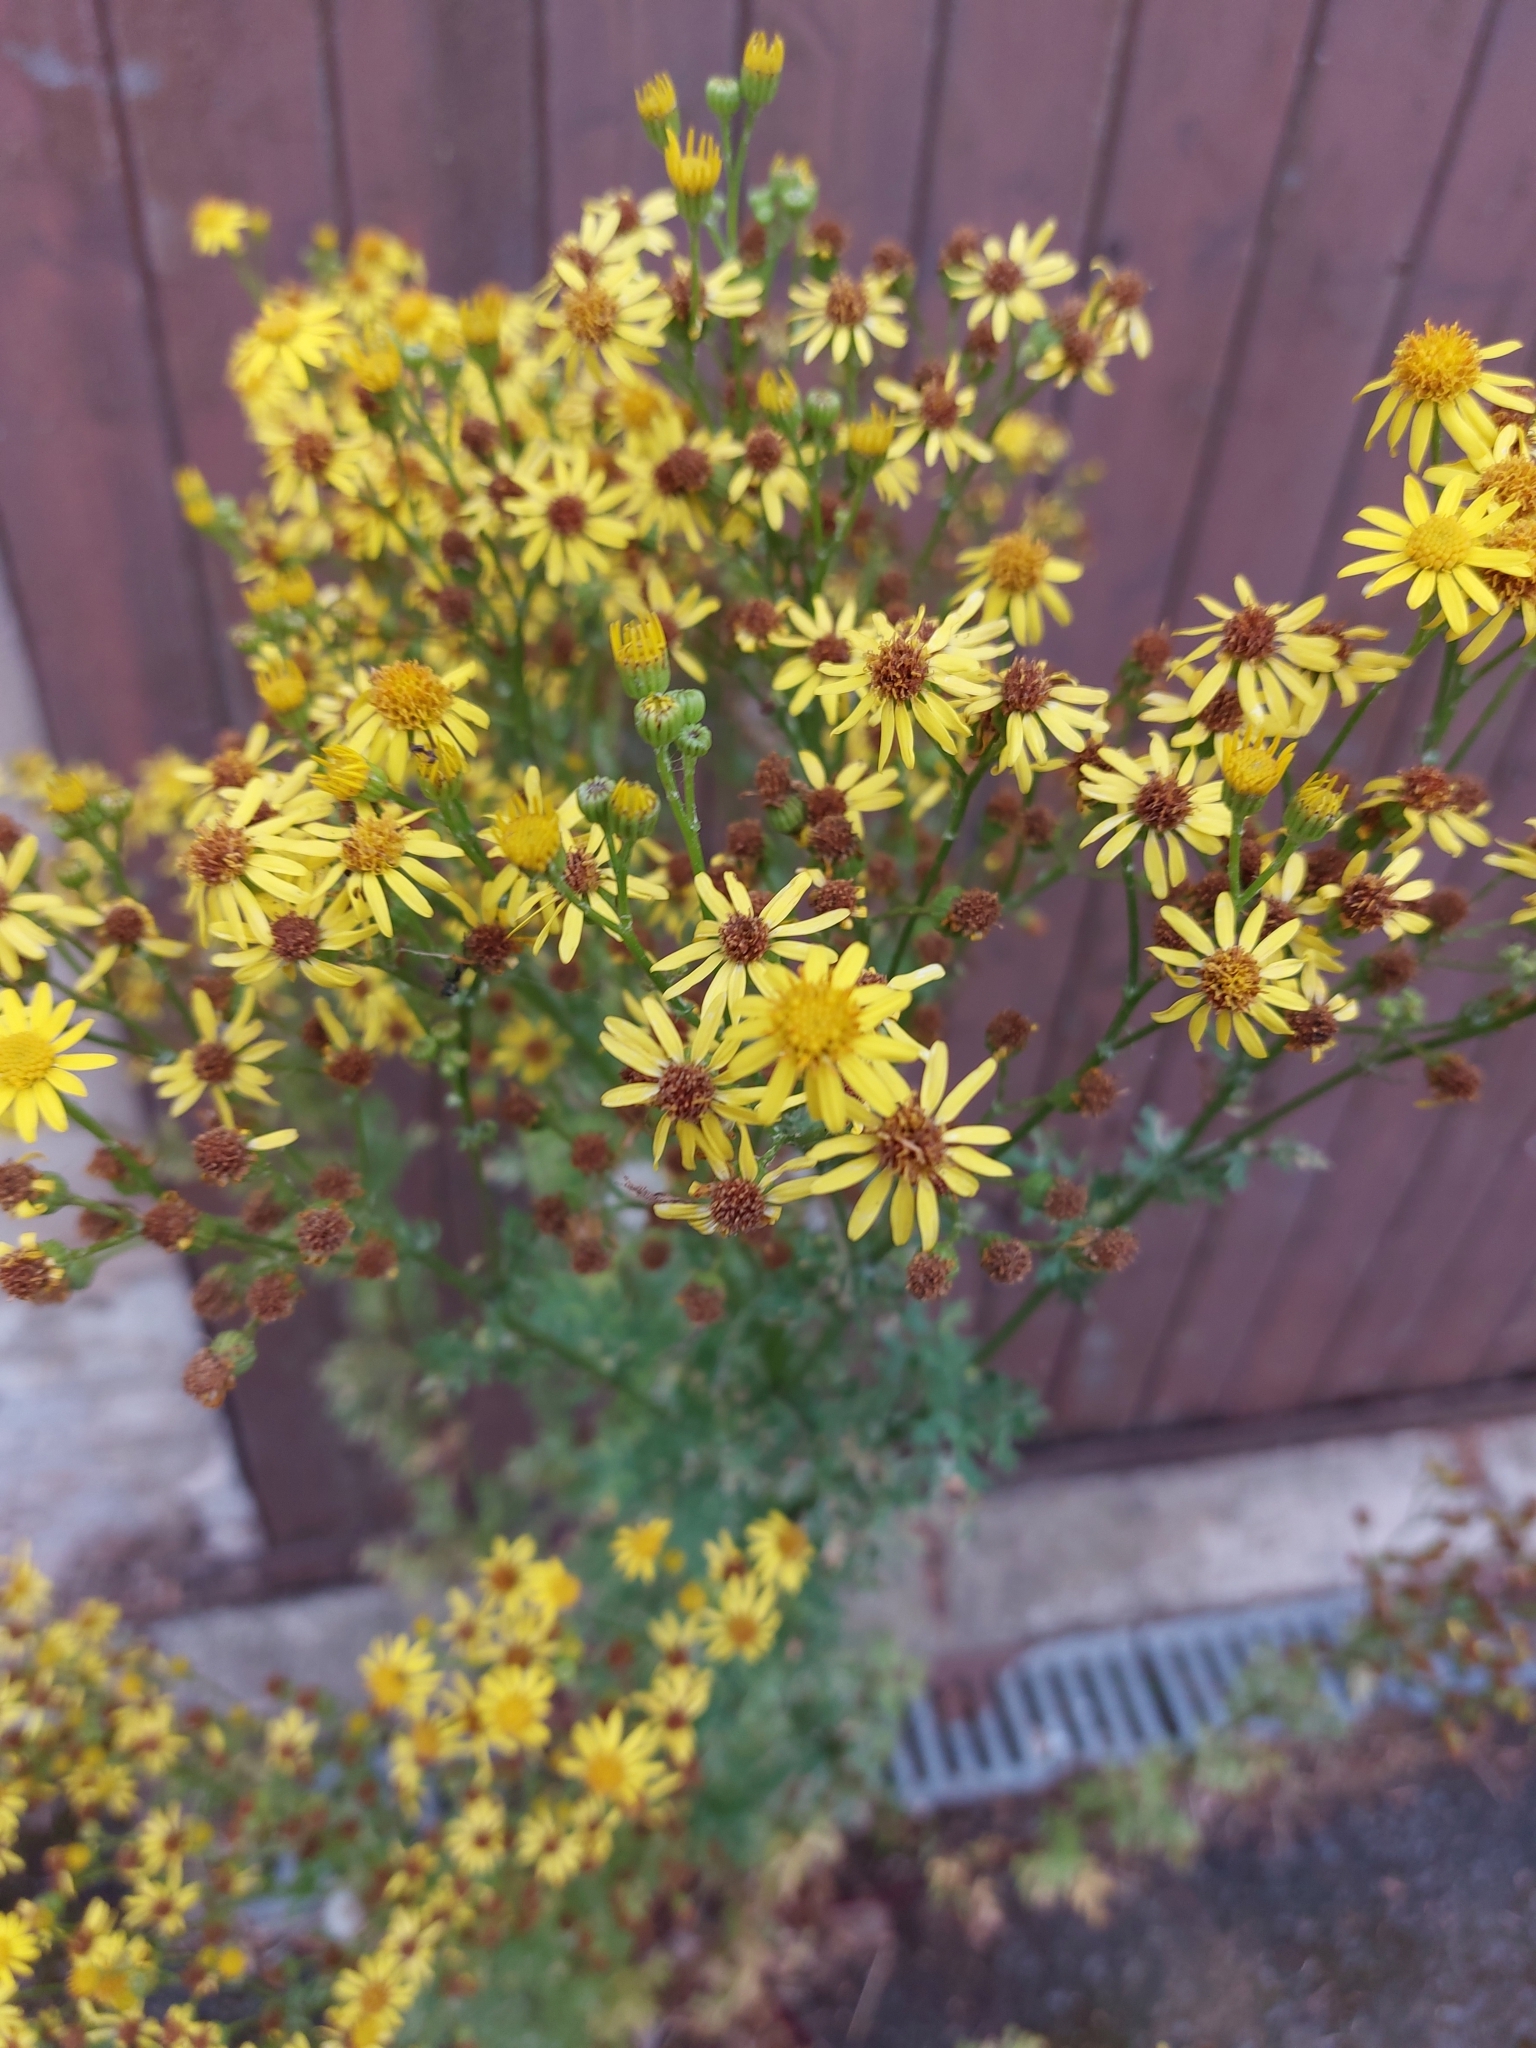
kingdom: Plantae
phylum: Tracheophyta
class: Magnoliopsida
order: Asterales
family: Asteraceae
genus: Jacobaea
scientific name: Jacobaea vulgaris
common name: Stinking willie
